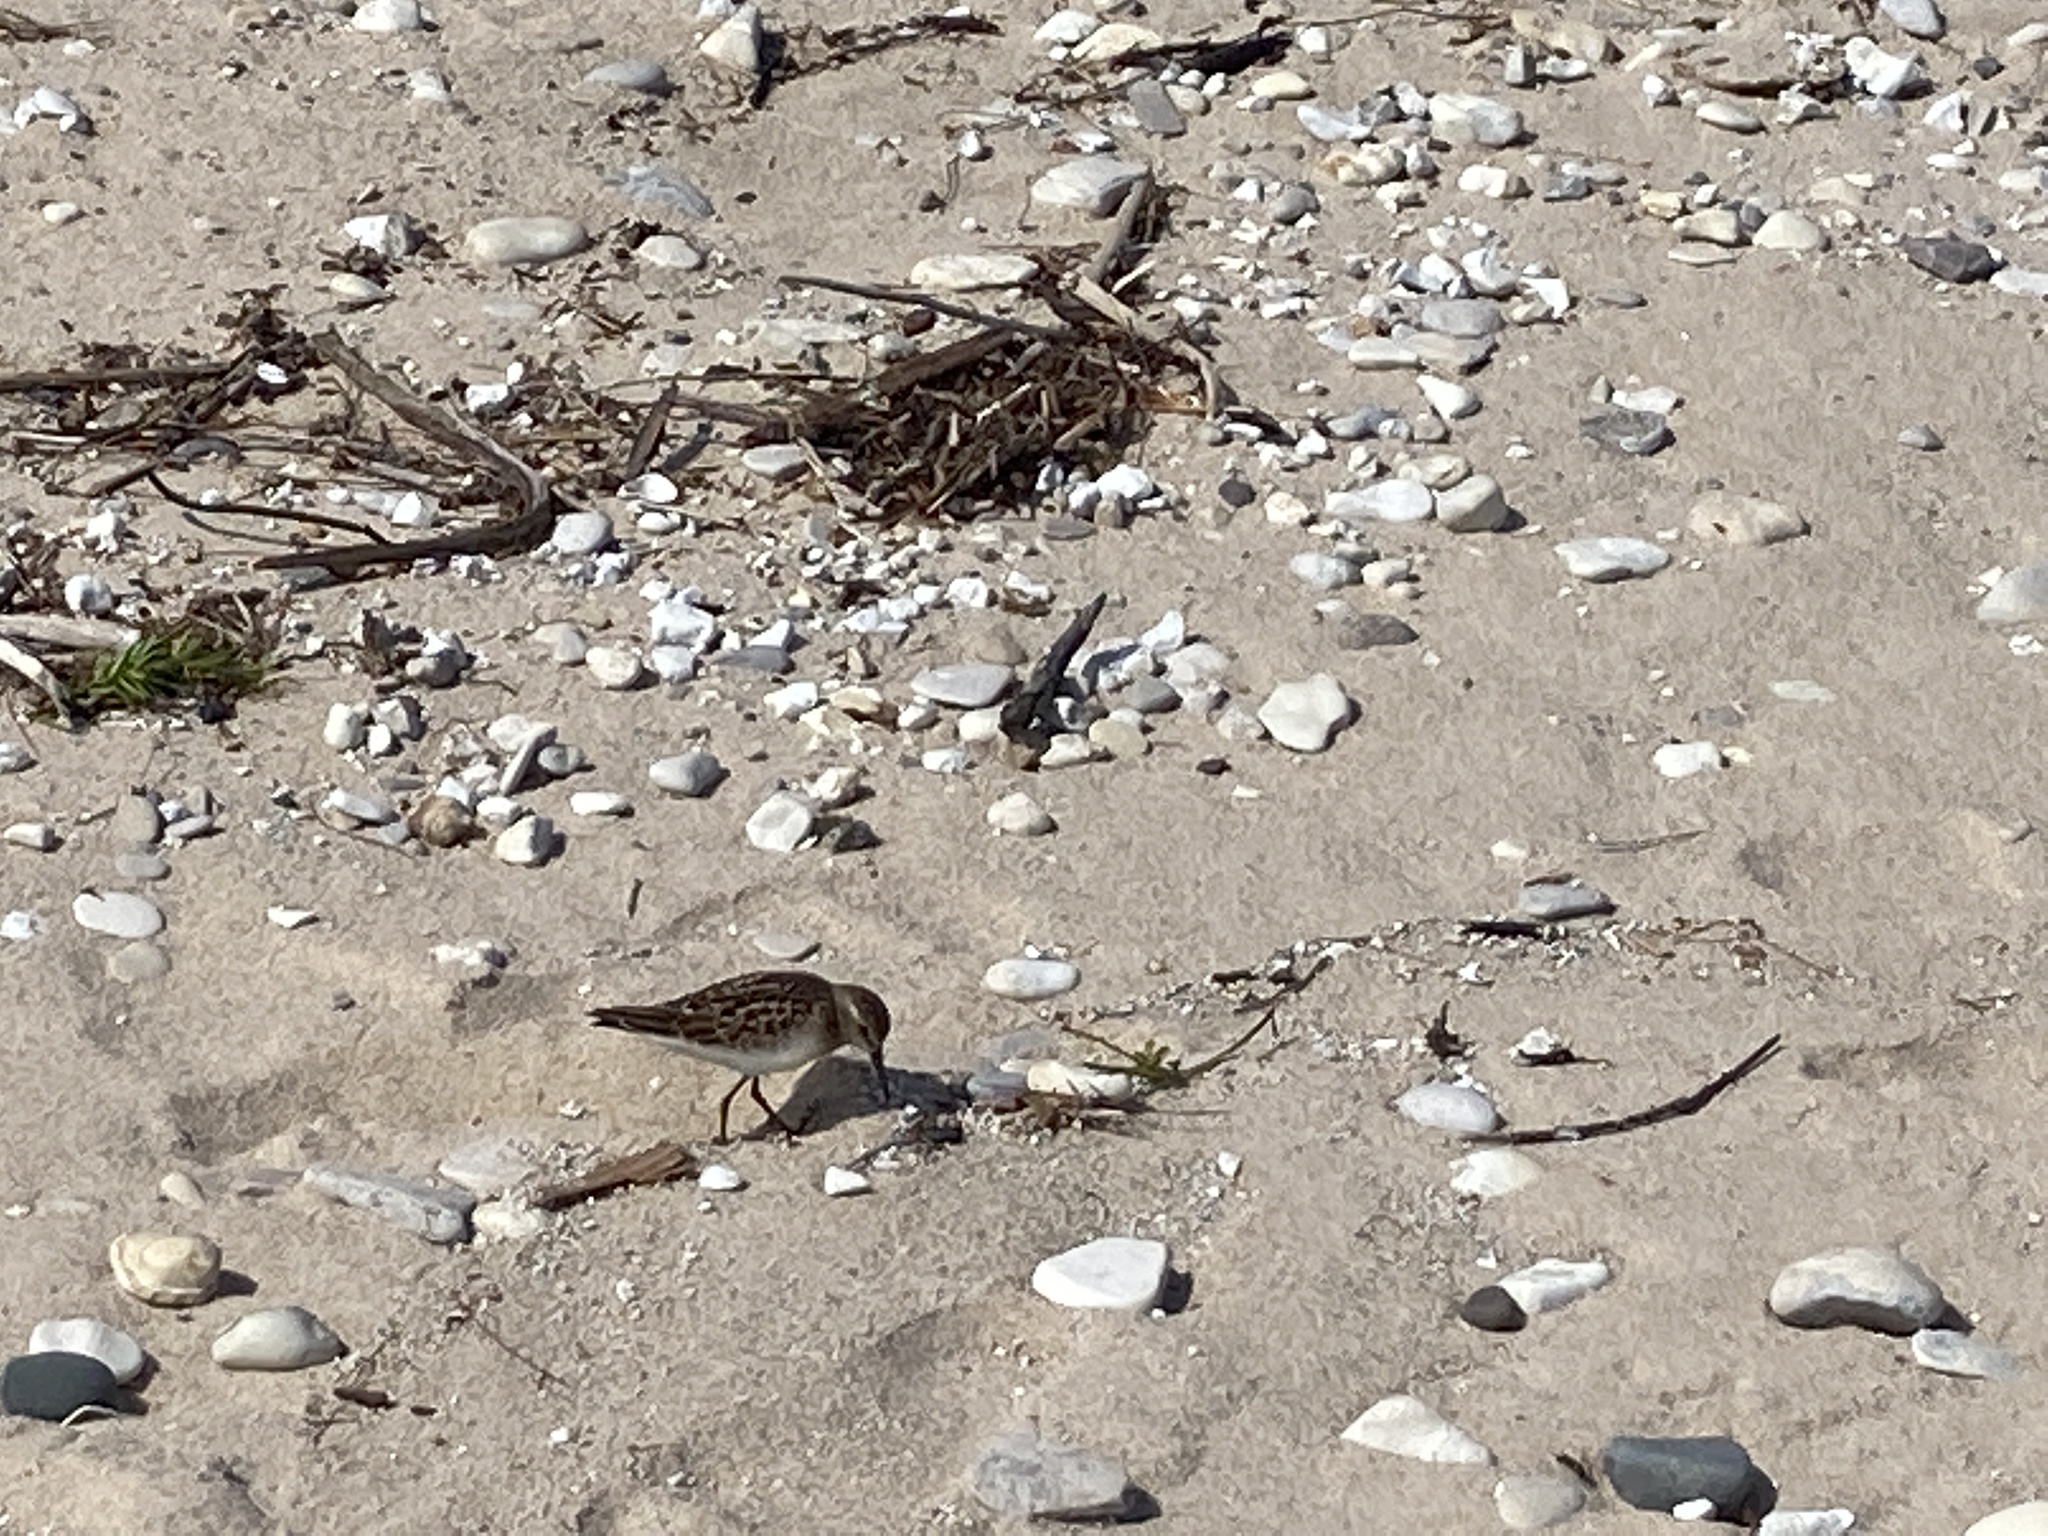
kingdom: Animalia
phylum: Chordata
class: Aves
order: Charadriiformes
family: Scolopacidae
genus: Calidris
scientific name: Calidris minutilla
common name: Least sandpiper
